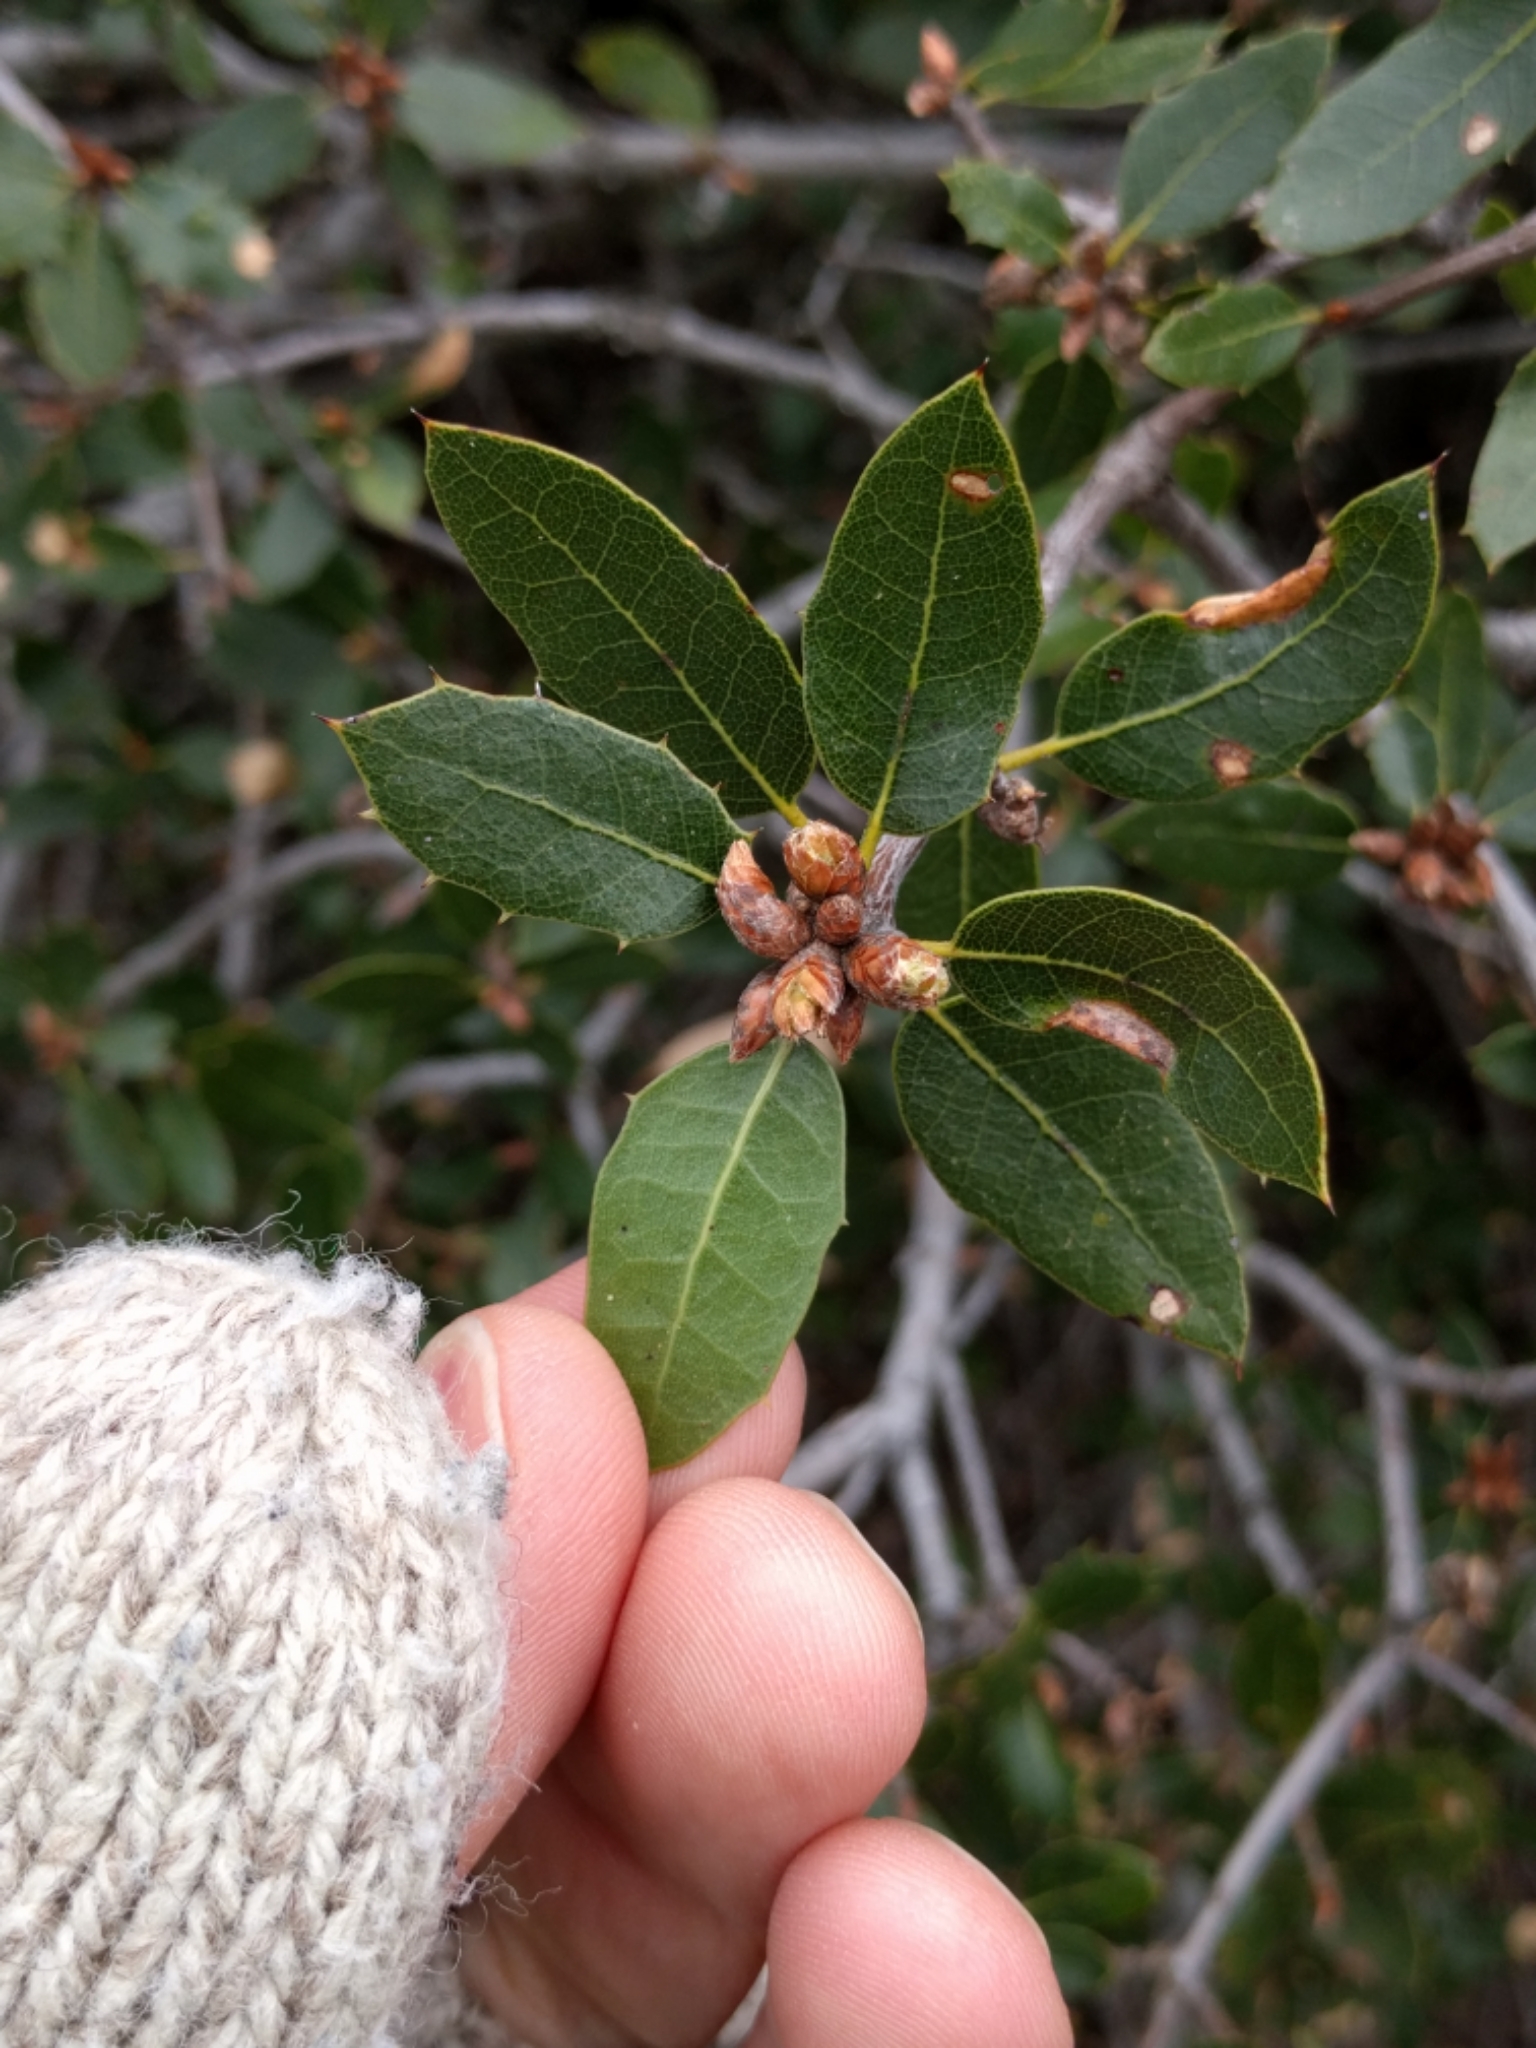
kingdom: Plantae
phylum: Tracheophyta
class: Magnoliopsida
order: Fagales
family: Fagaceae
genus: Quercus
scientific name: Quercus wislizeni
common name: Interior live oak
